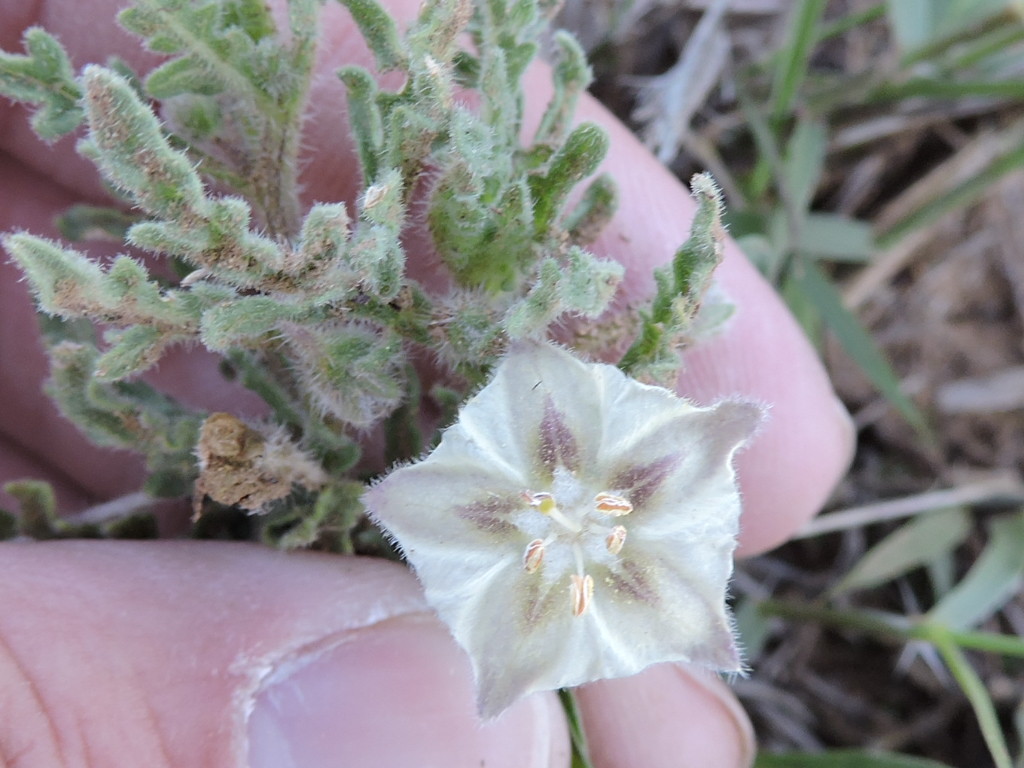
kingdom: Plantae
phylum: Tracheophyta
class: Magnoliopsida
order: Solanales
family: Solanaceae
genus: Chamaesaracha
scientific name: Chamaesaracha coniodes
